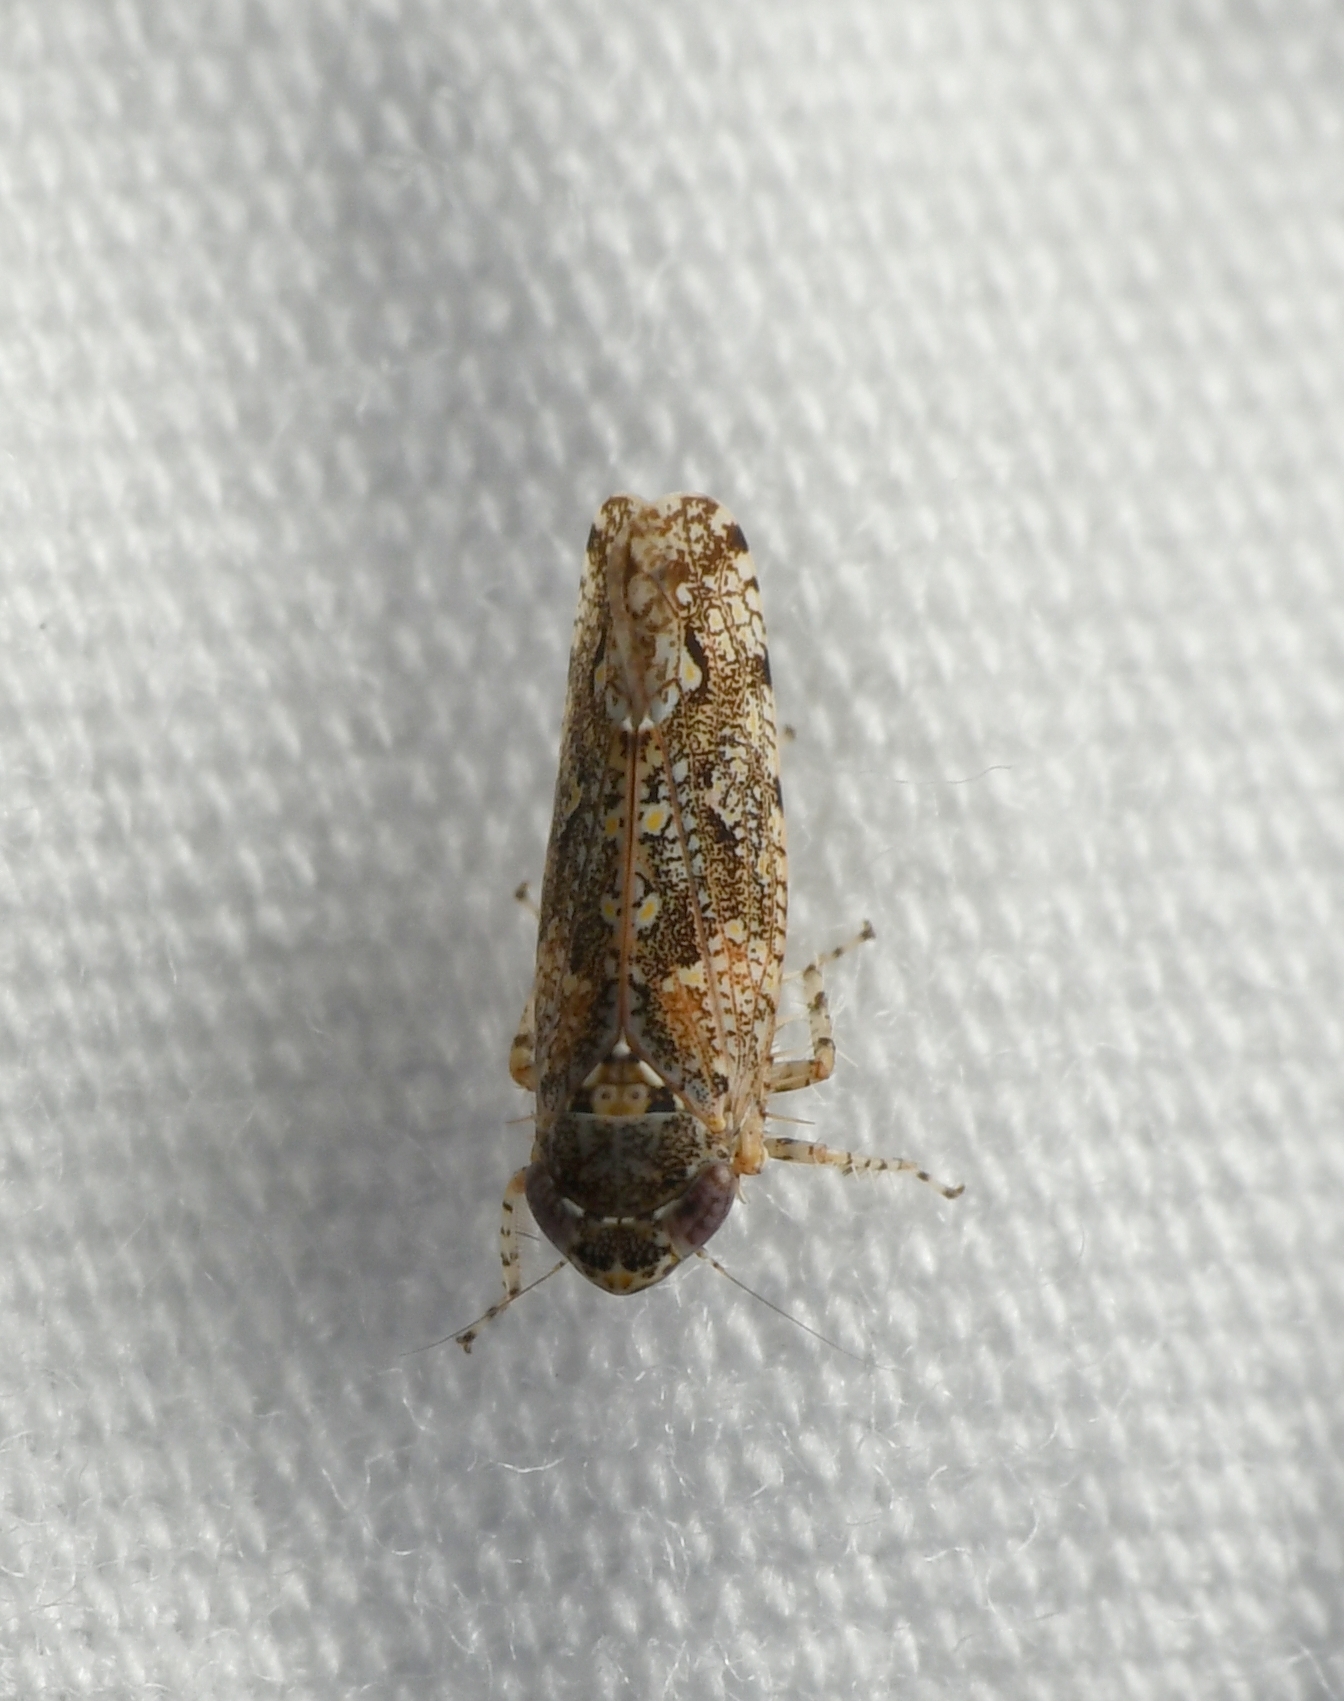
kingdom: Animalia
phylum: Arthropoda
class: Insecta
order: Hemiptera
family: Cicadellidae
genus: Dixianus
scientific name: Dixianus utahnus
